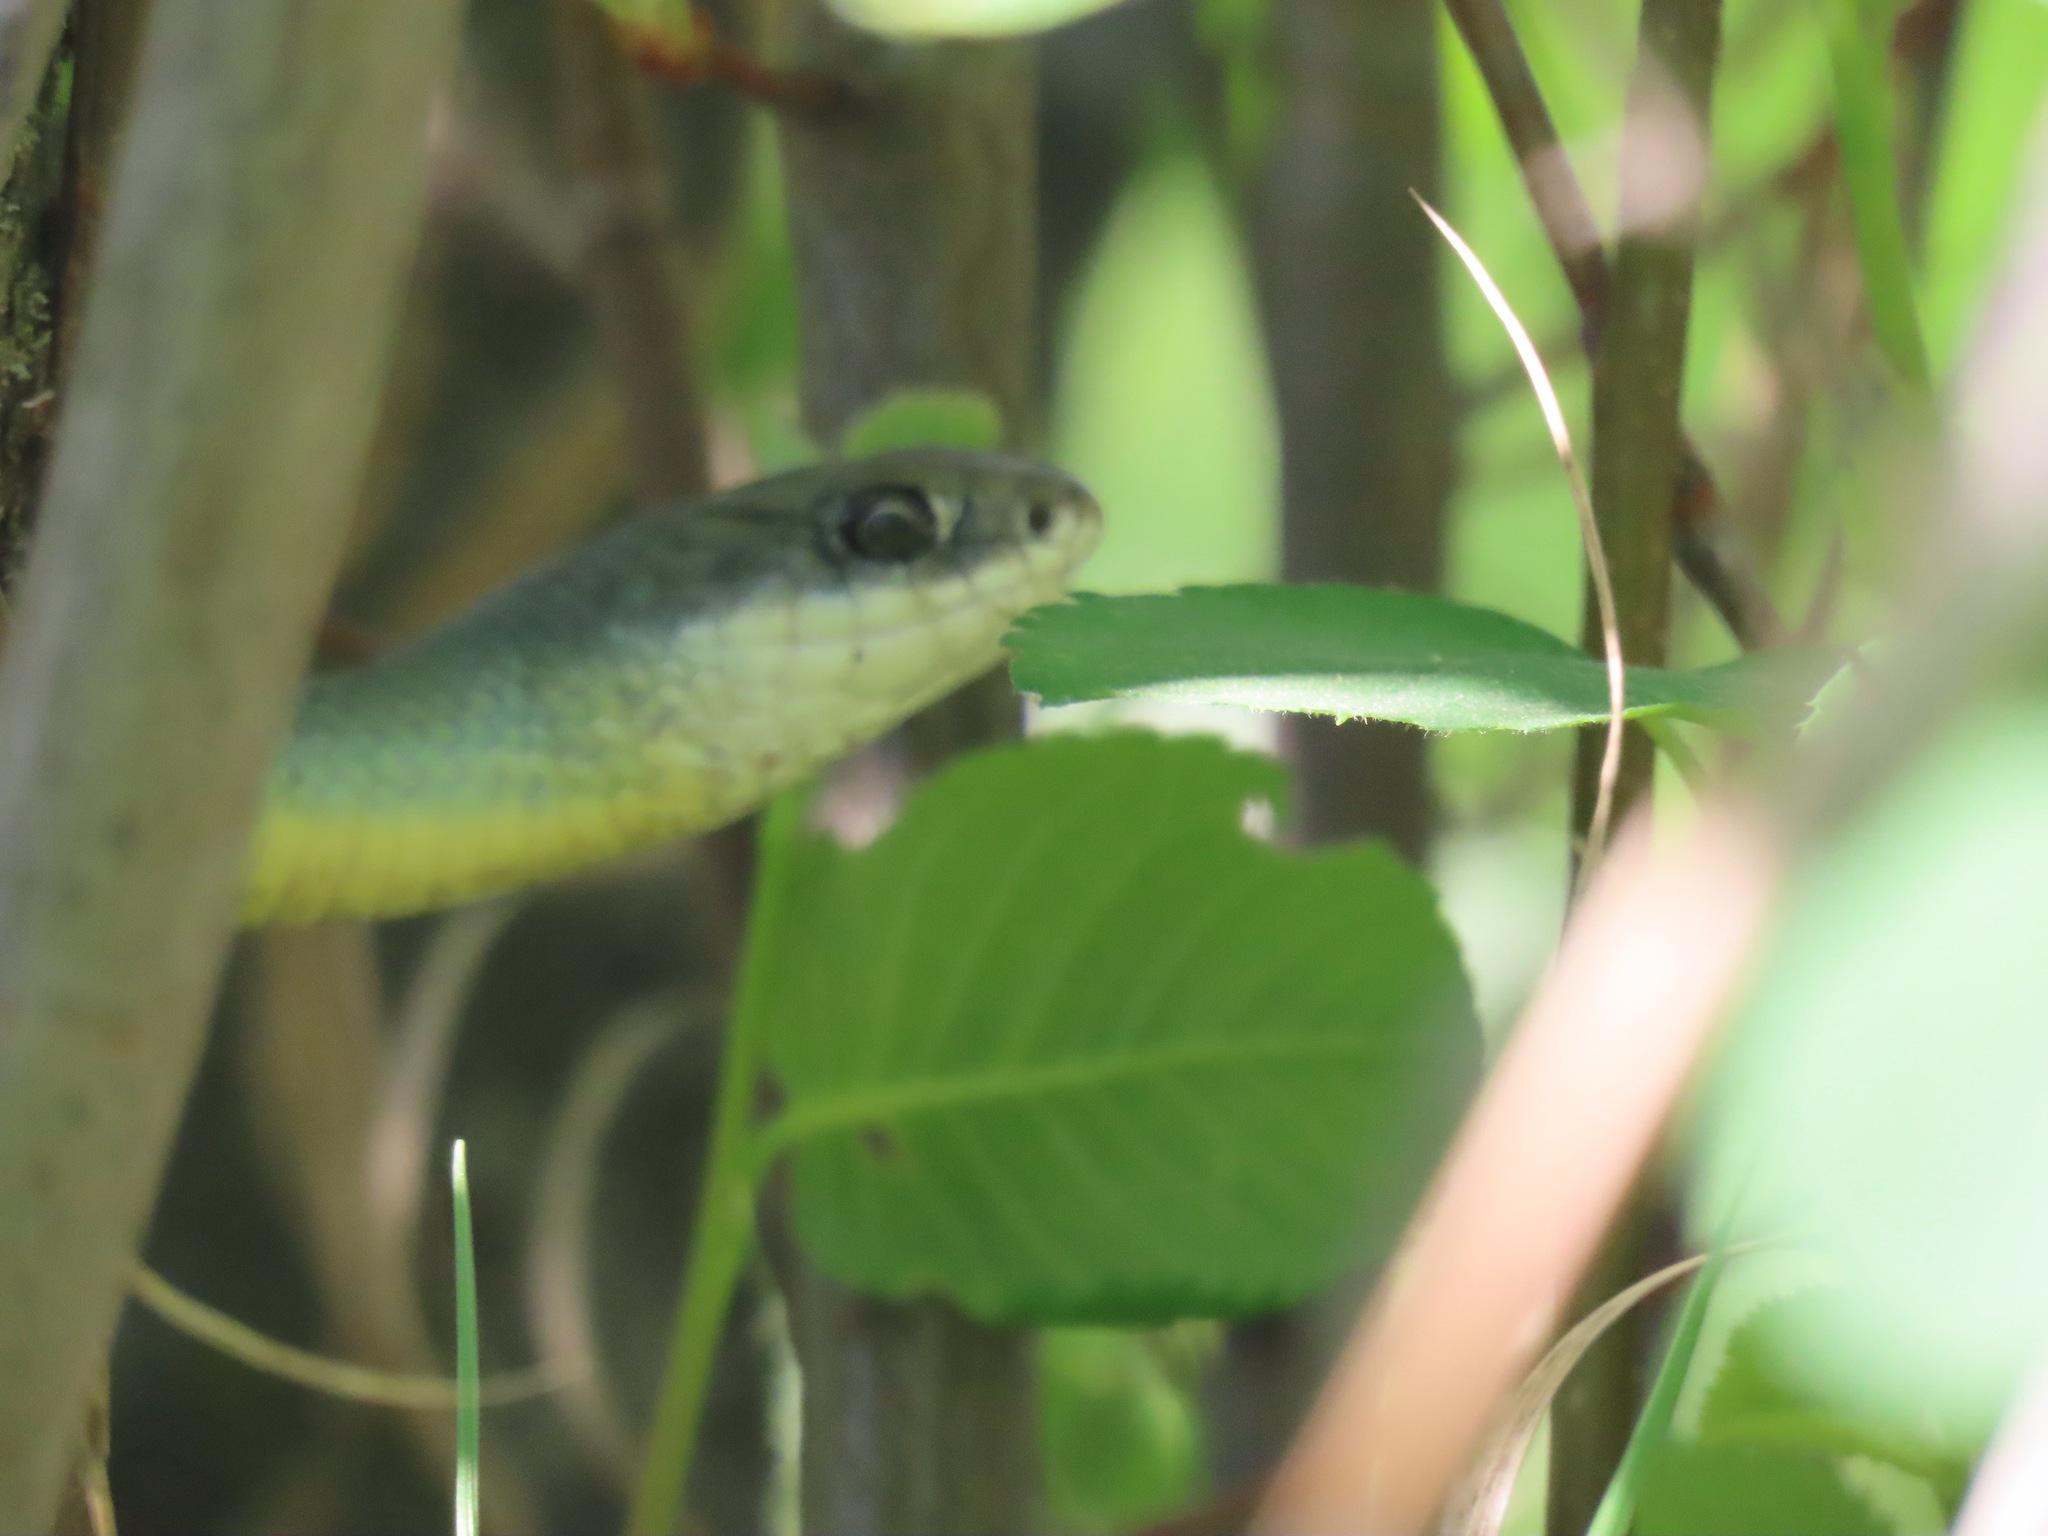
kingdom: Animalia
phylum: Chordata
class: Squamata
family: Colubridae
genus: Coluber
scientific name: Coluber constrictor
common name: Eastern racer
